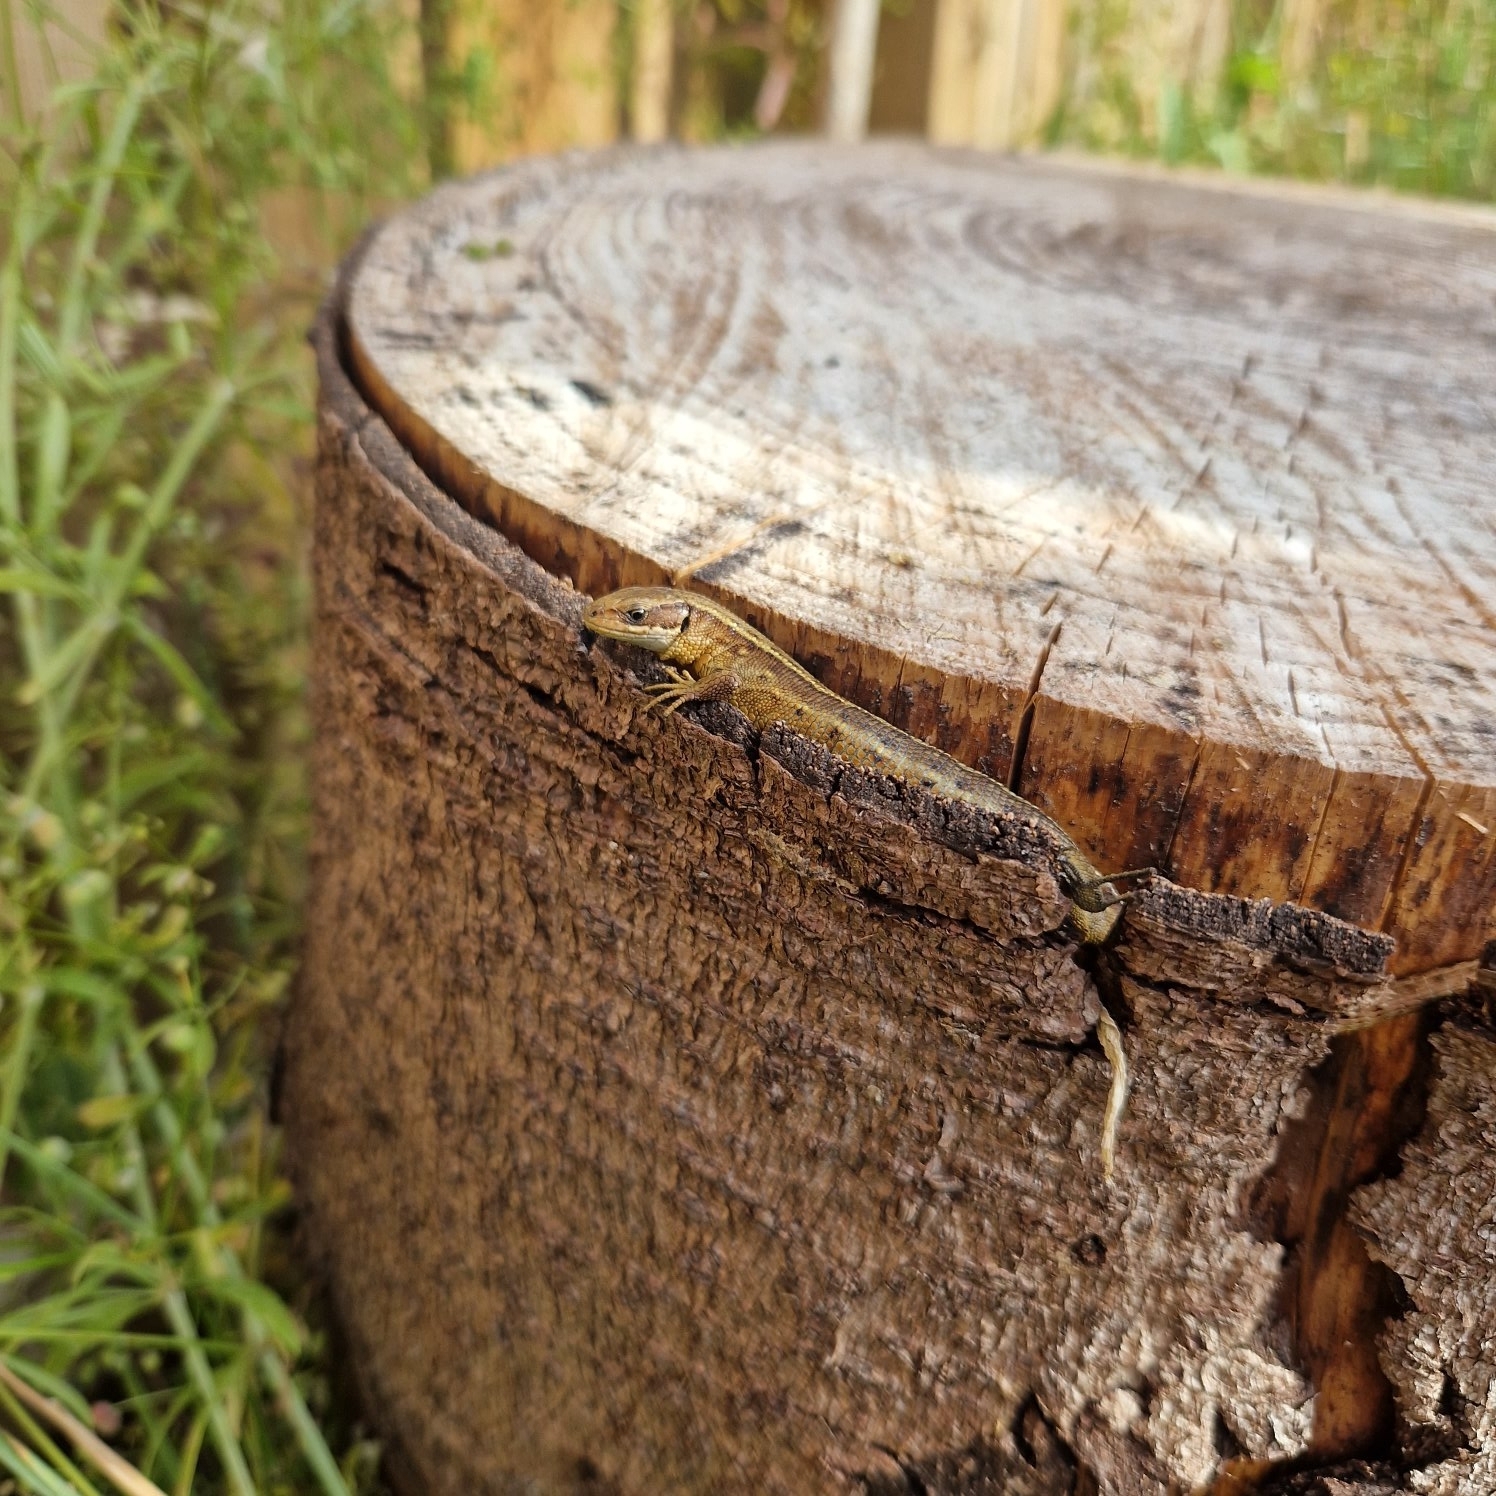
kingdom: Animalia
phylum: Chordata
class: Squamata
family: Lacertidae
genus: Zootoca
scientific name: Zootoca vivipara
